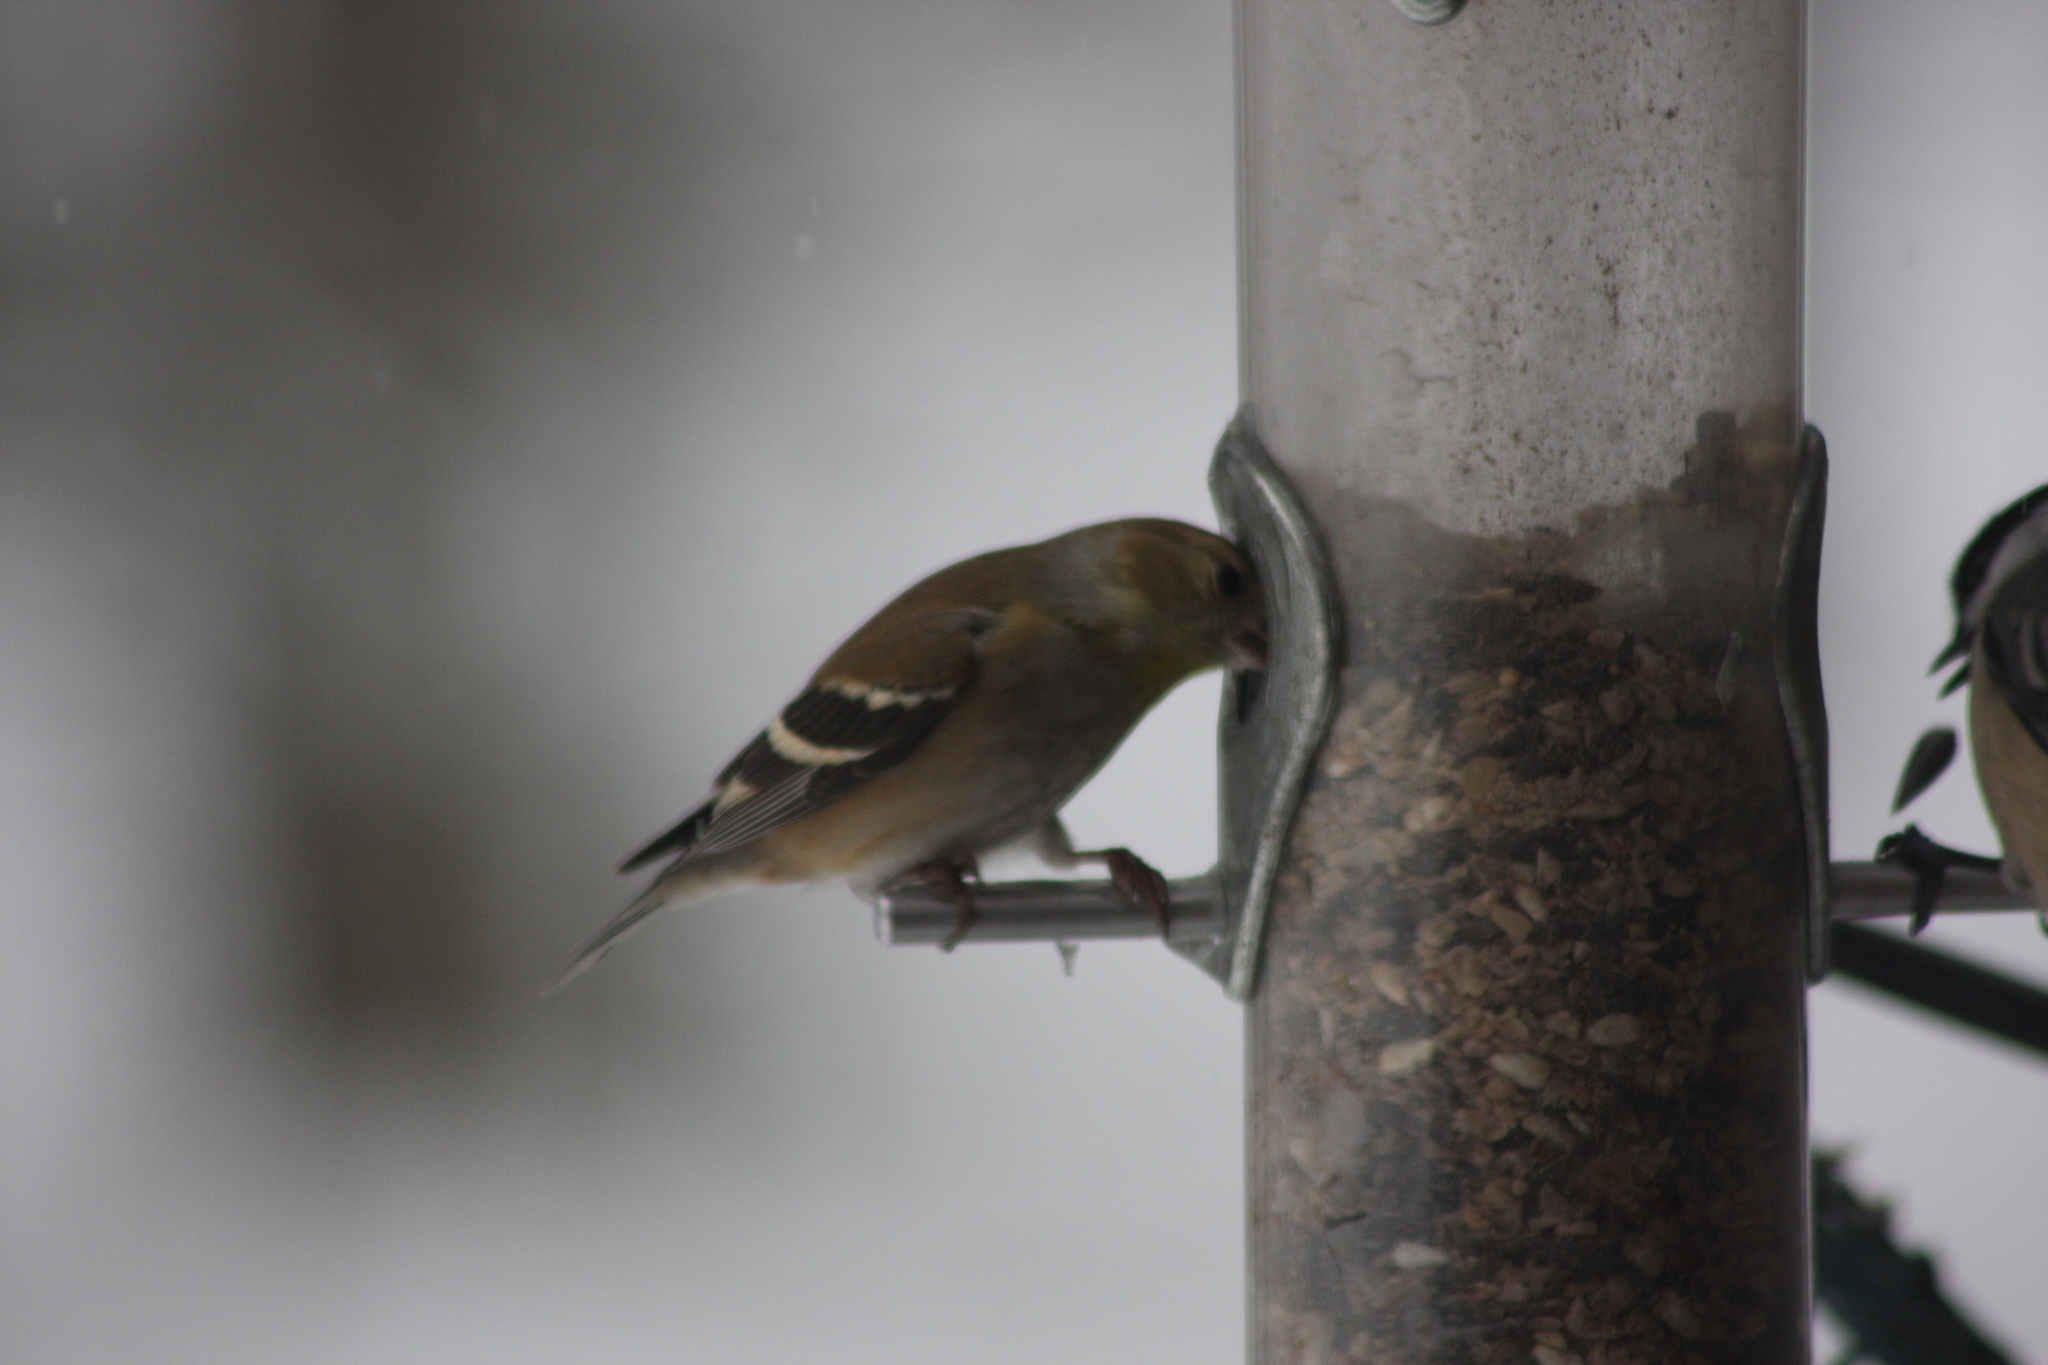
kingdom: Animalia
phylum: Chordata
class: Aves
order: Passeriformes
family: Fringillidae
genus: Spinus
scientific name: Spinus tristis
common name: American goldfinch
